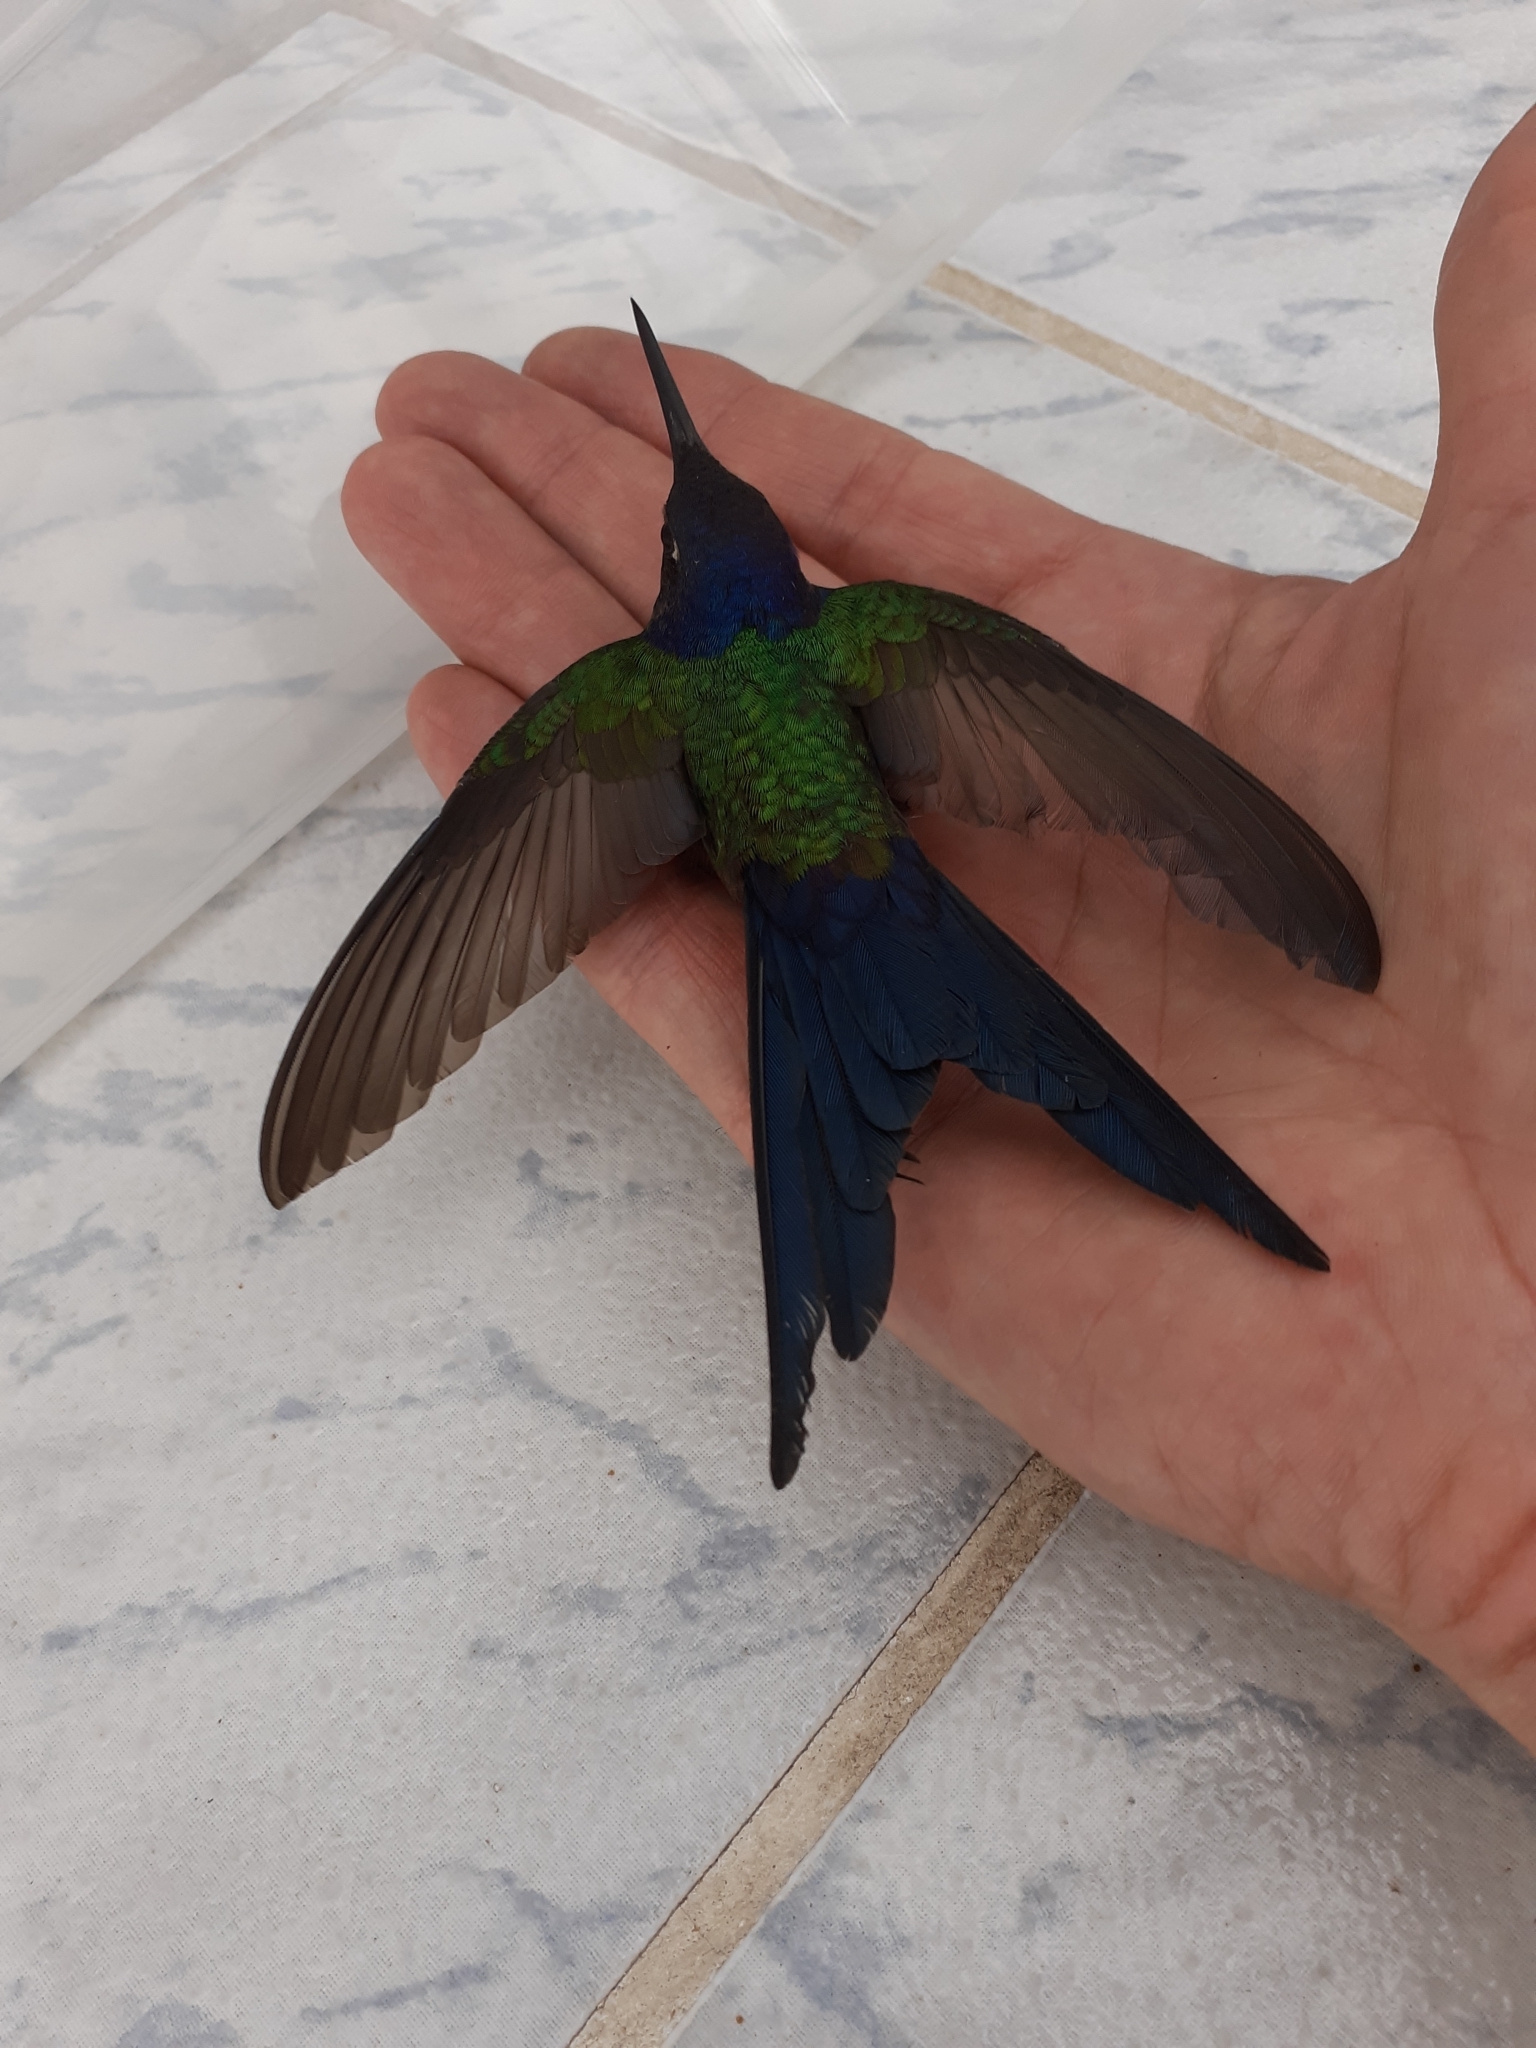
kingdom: Animalia
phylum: Chordata
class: Aves
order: Apodiformes
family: Trochilidae
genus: Eupetomena
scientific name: Eupetomena macroura
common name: Swallow-tailed hummingbird
